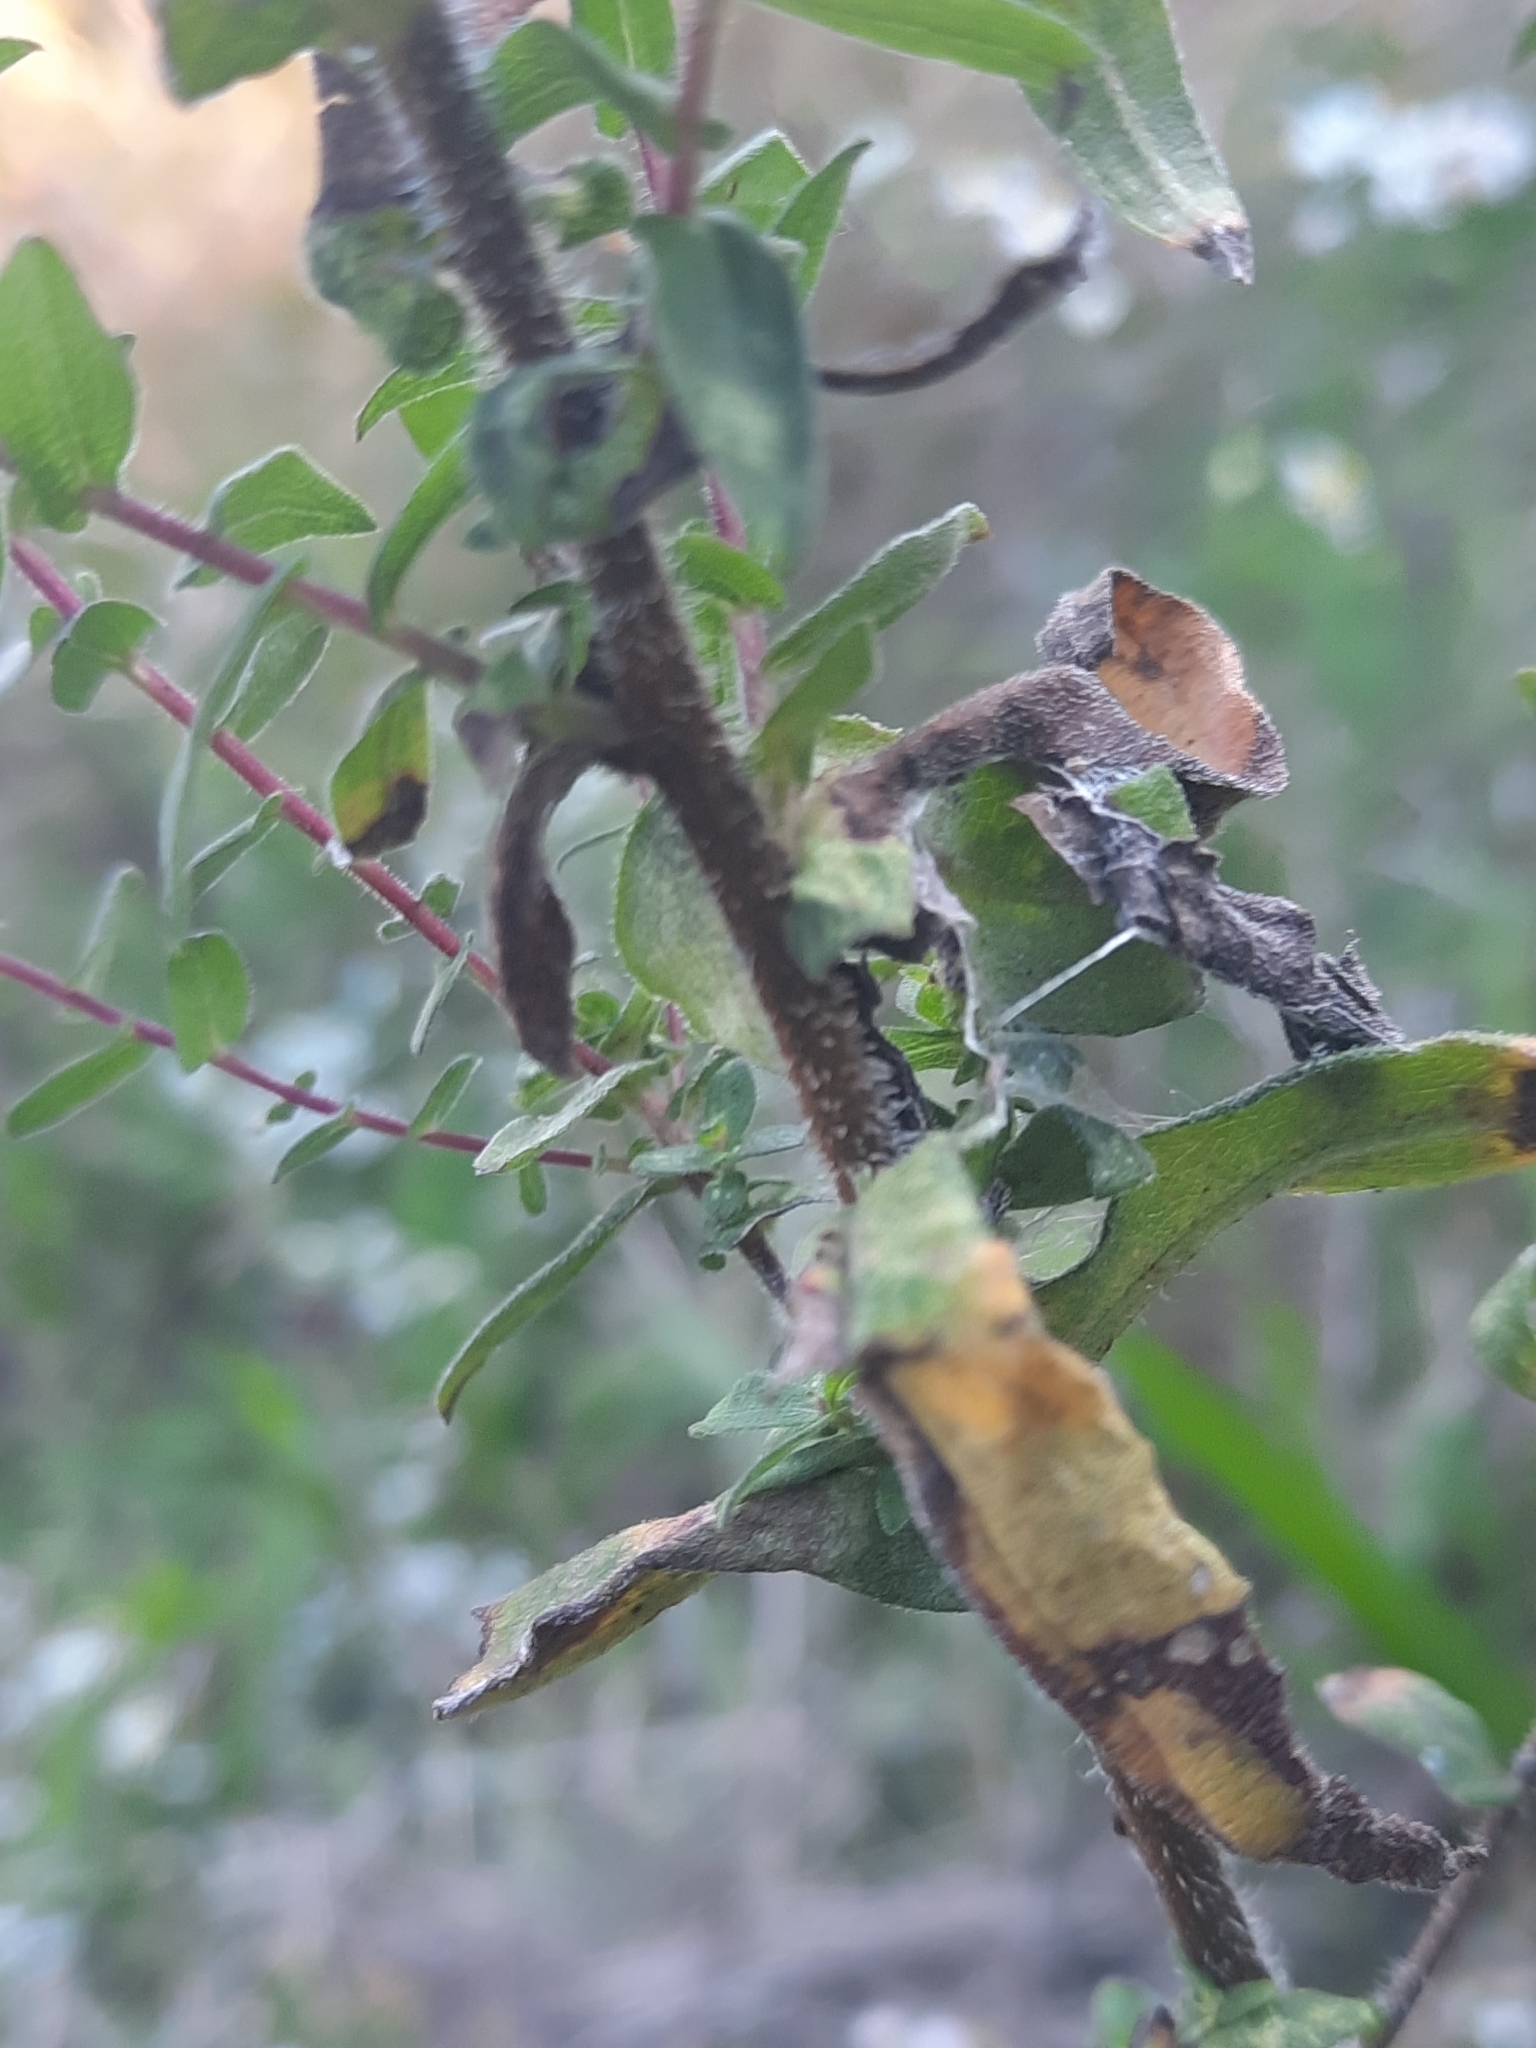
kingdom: Plantae
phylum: Tracheophyta
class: Magnoliopsida
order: Asterales
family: Asteraceae
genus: Symphyotrichum
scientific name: Symphyotrichum novae-angliae
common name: Michaelmas daisy
